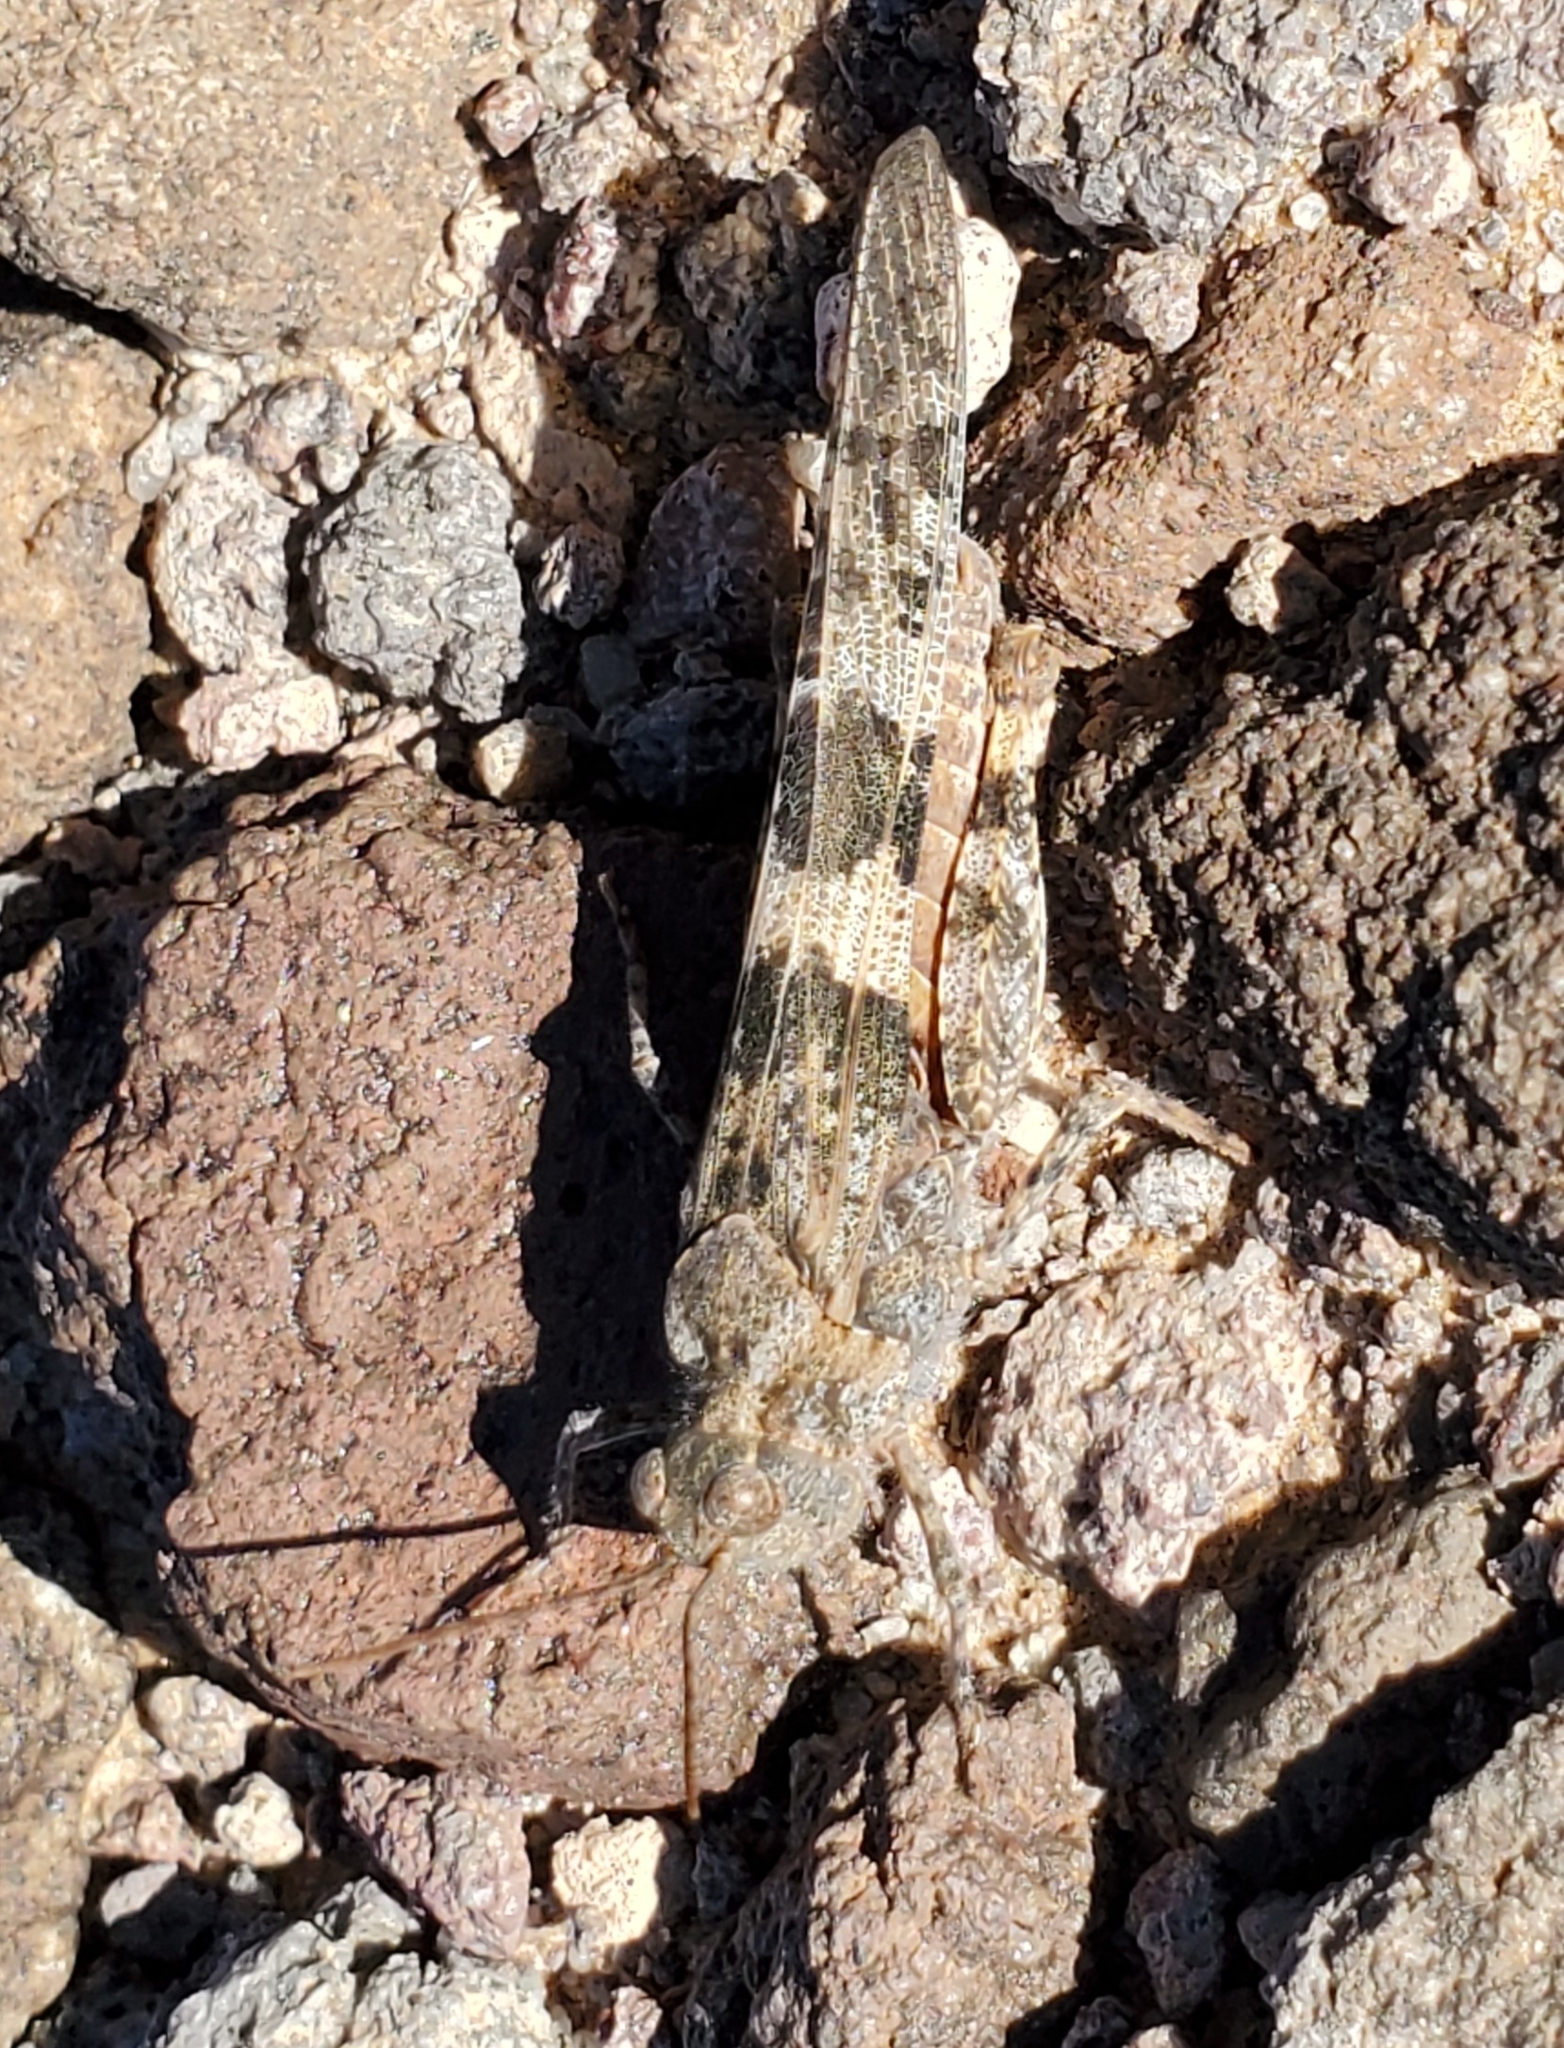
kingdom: Animalia
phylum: Arthropoda
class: Insecta
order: Orthoptera
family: Acrididae
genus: Trimerotropis
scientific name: Trimerotropis pallidipennis
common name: Pallid-winged grasshopper
